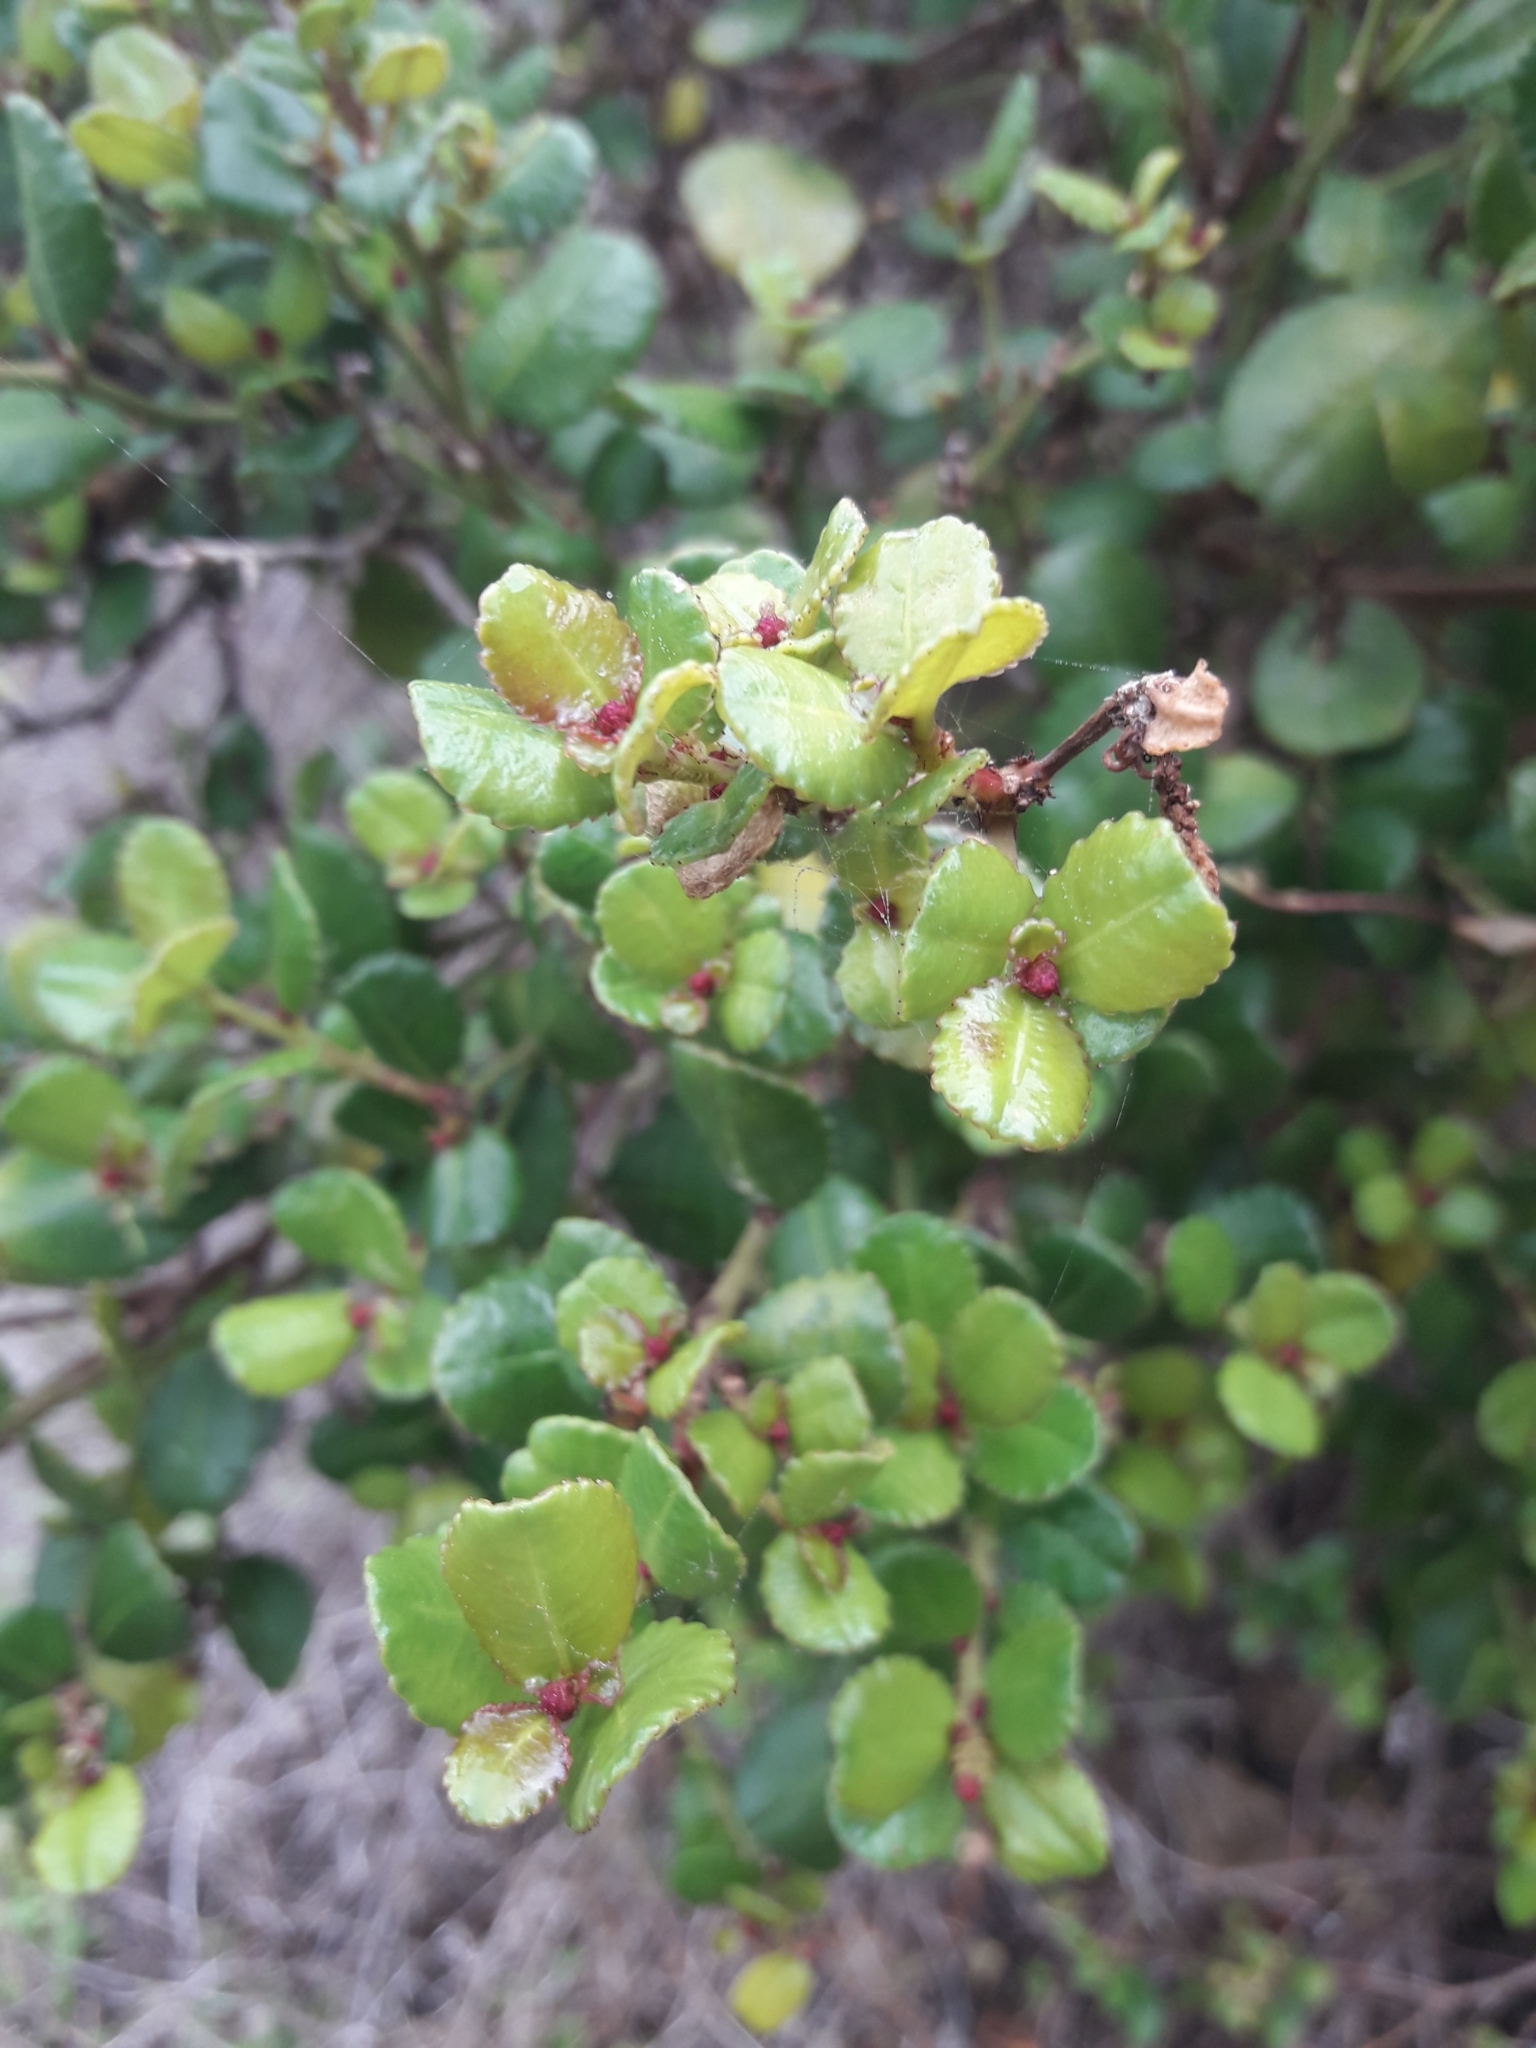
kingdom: Plantae
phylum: Tracheophyta
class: Magnoliopsida
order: Malpighiales
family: Euphorbiaceae
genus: Adenopeltis
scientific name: Adenopeltis serrata
